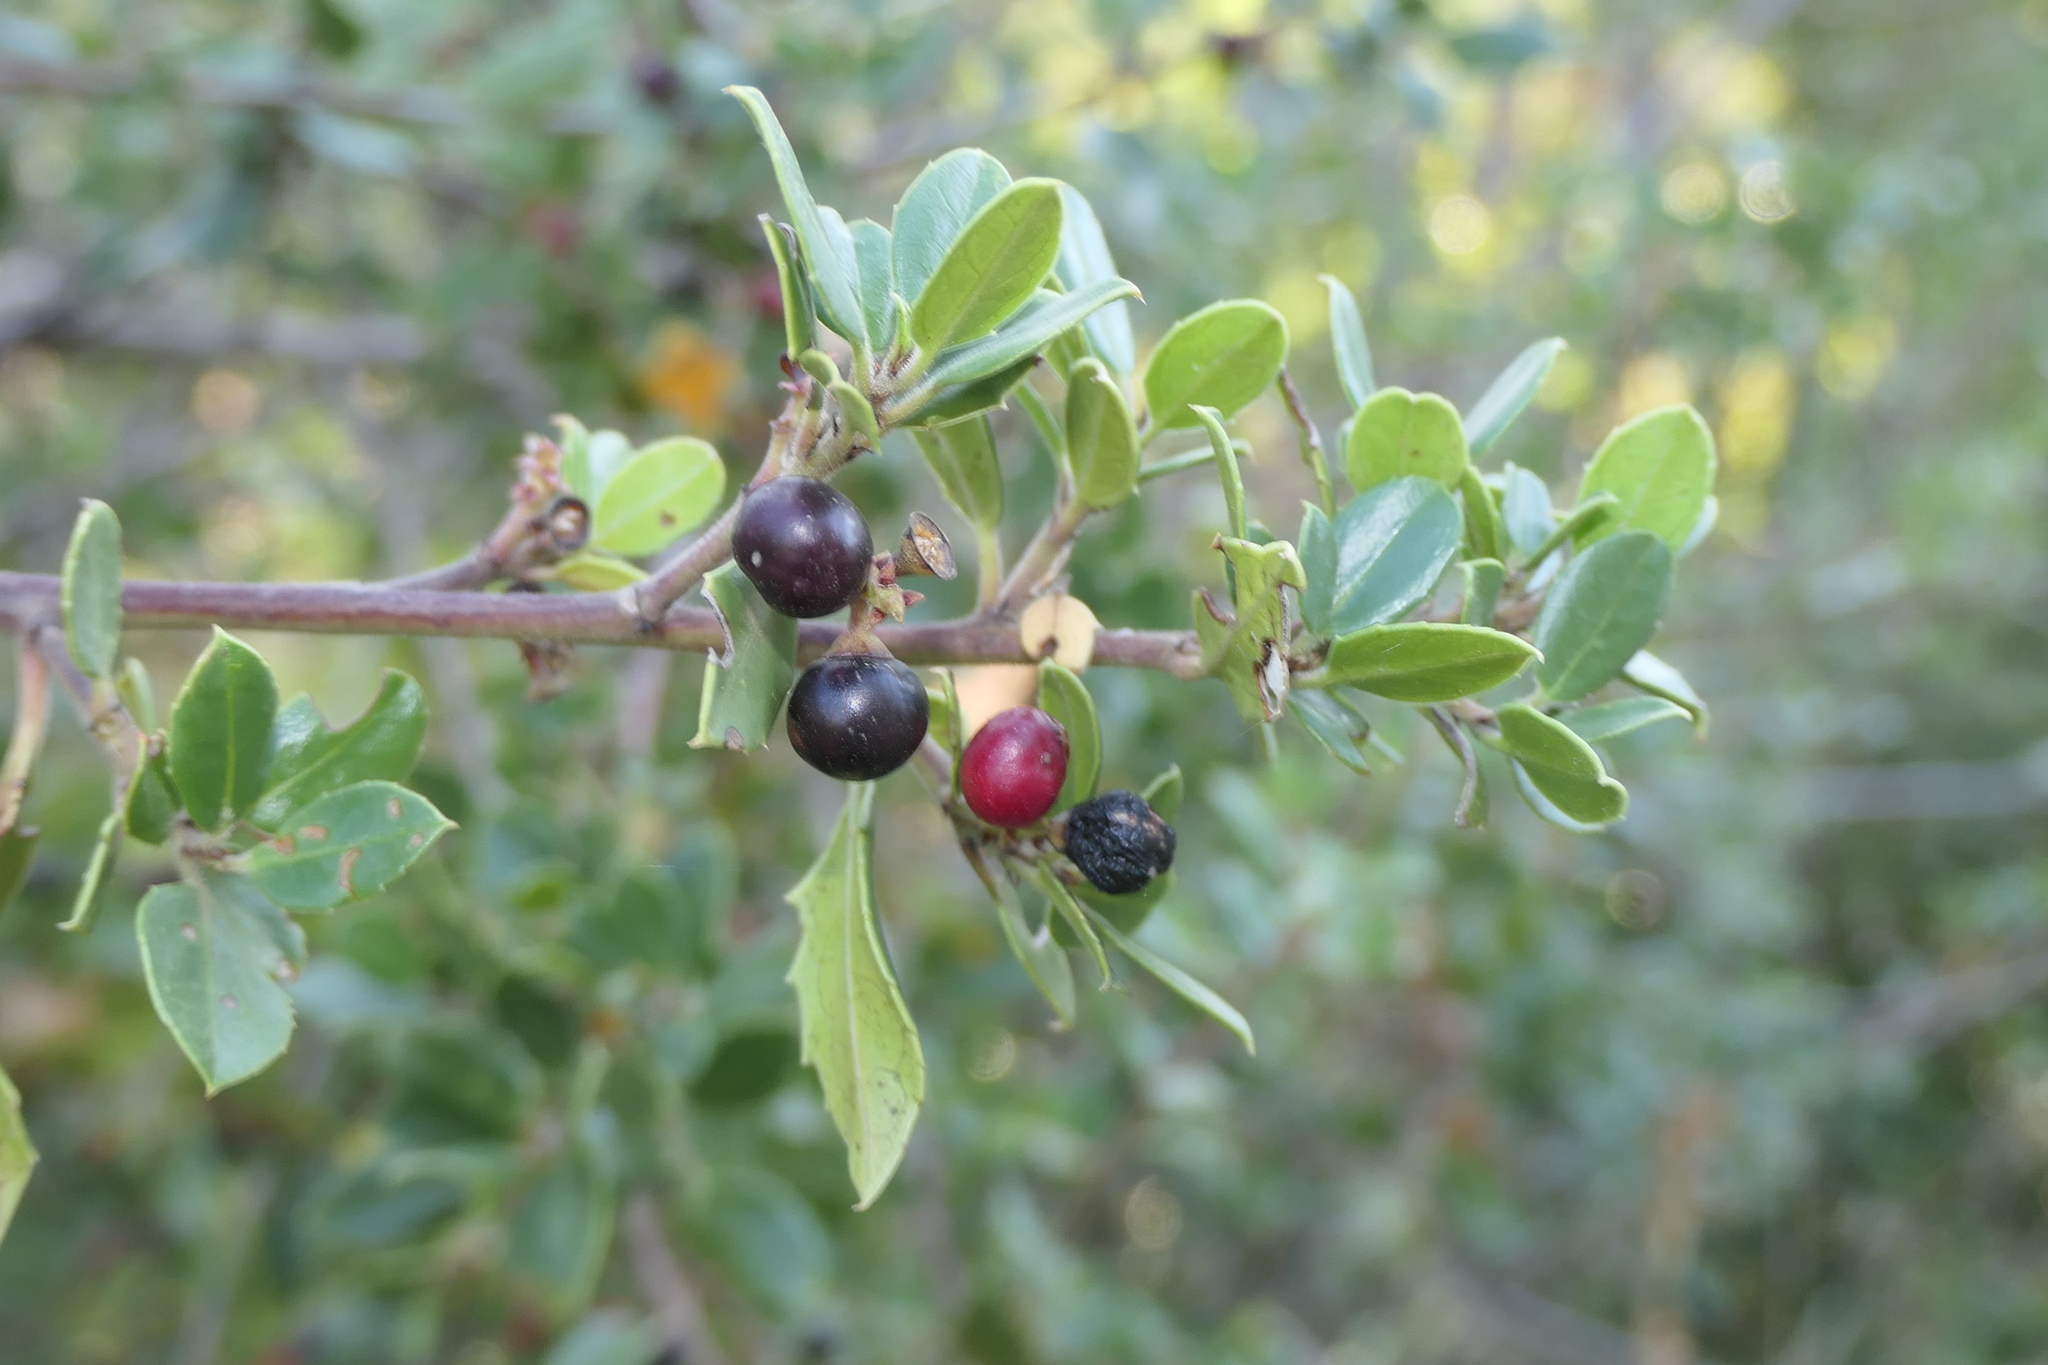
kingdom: Plantae
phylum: Tracheophyta
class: Magnoliopsida
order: Rosales
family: Rhamnaceae
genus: Rhamnus
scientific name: Rhamnus alaternus
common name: Mediterranean buckthorn
